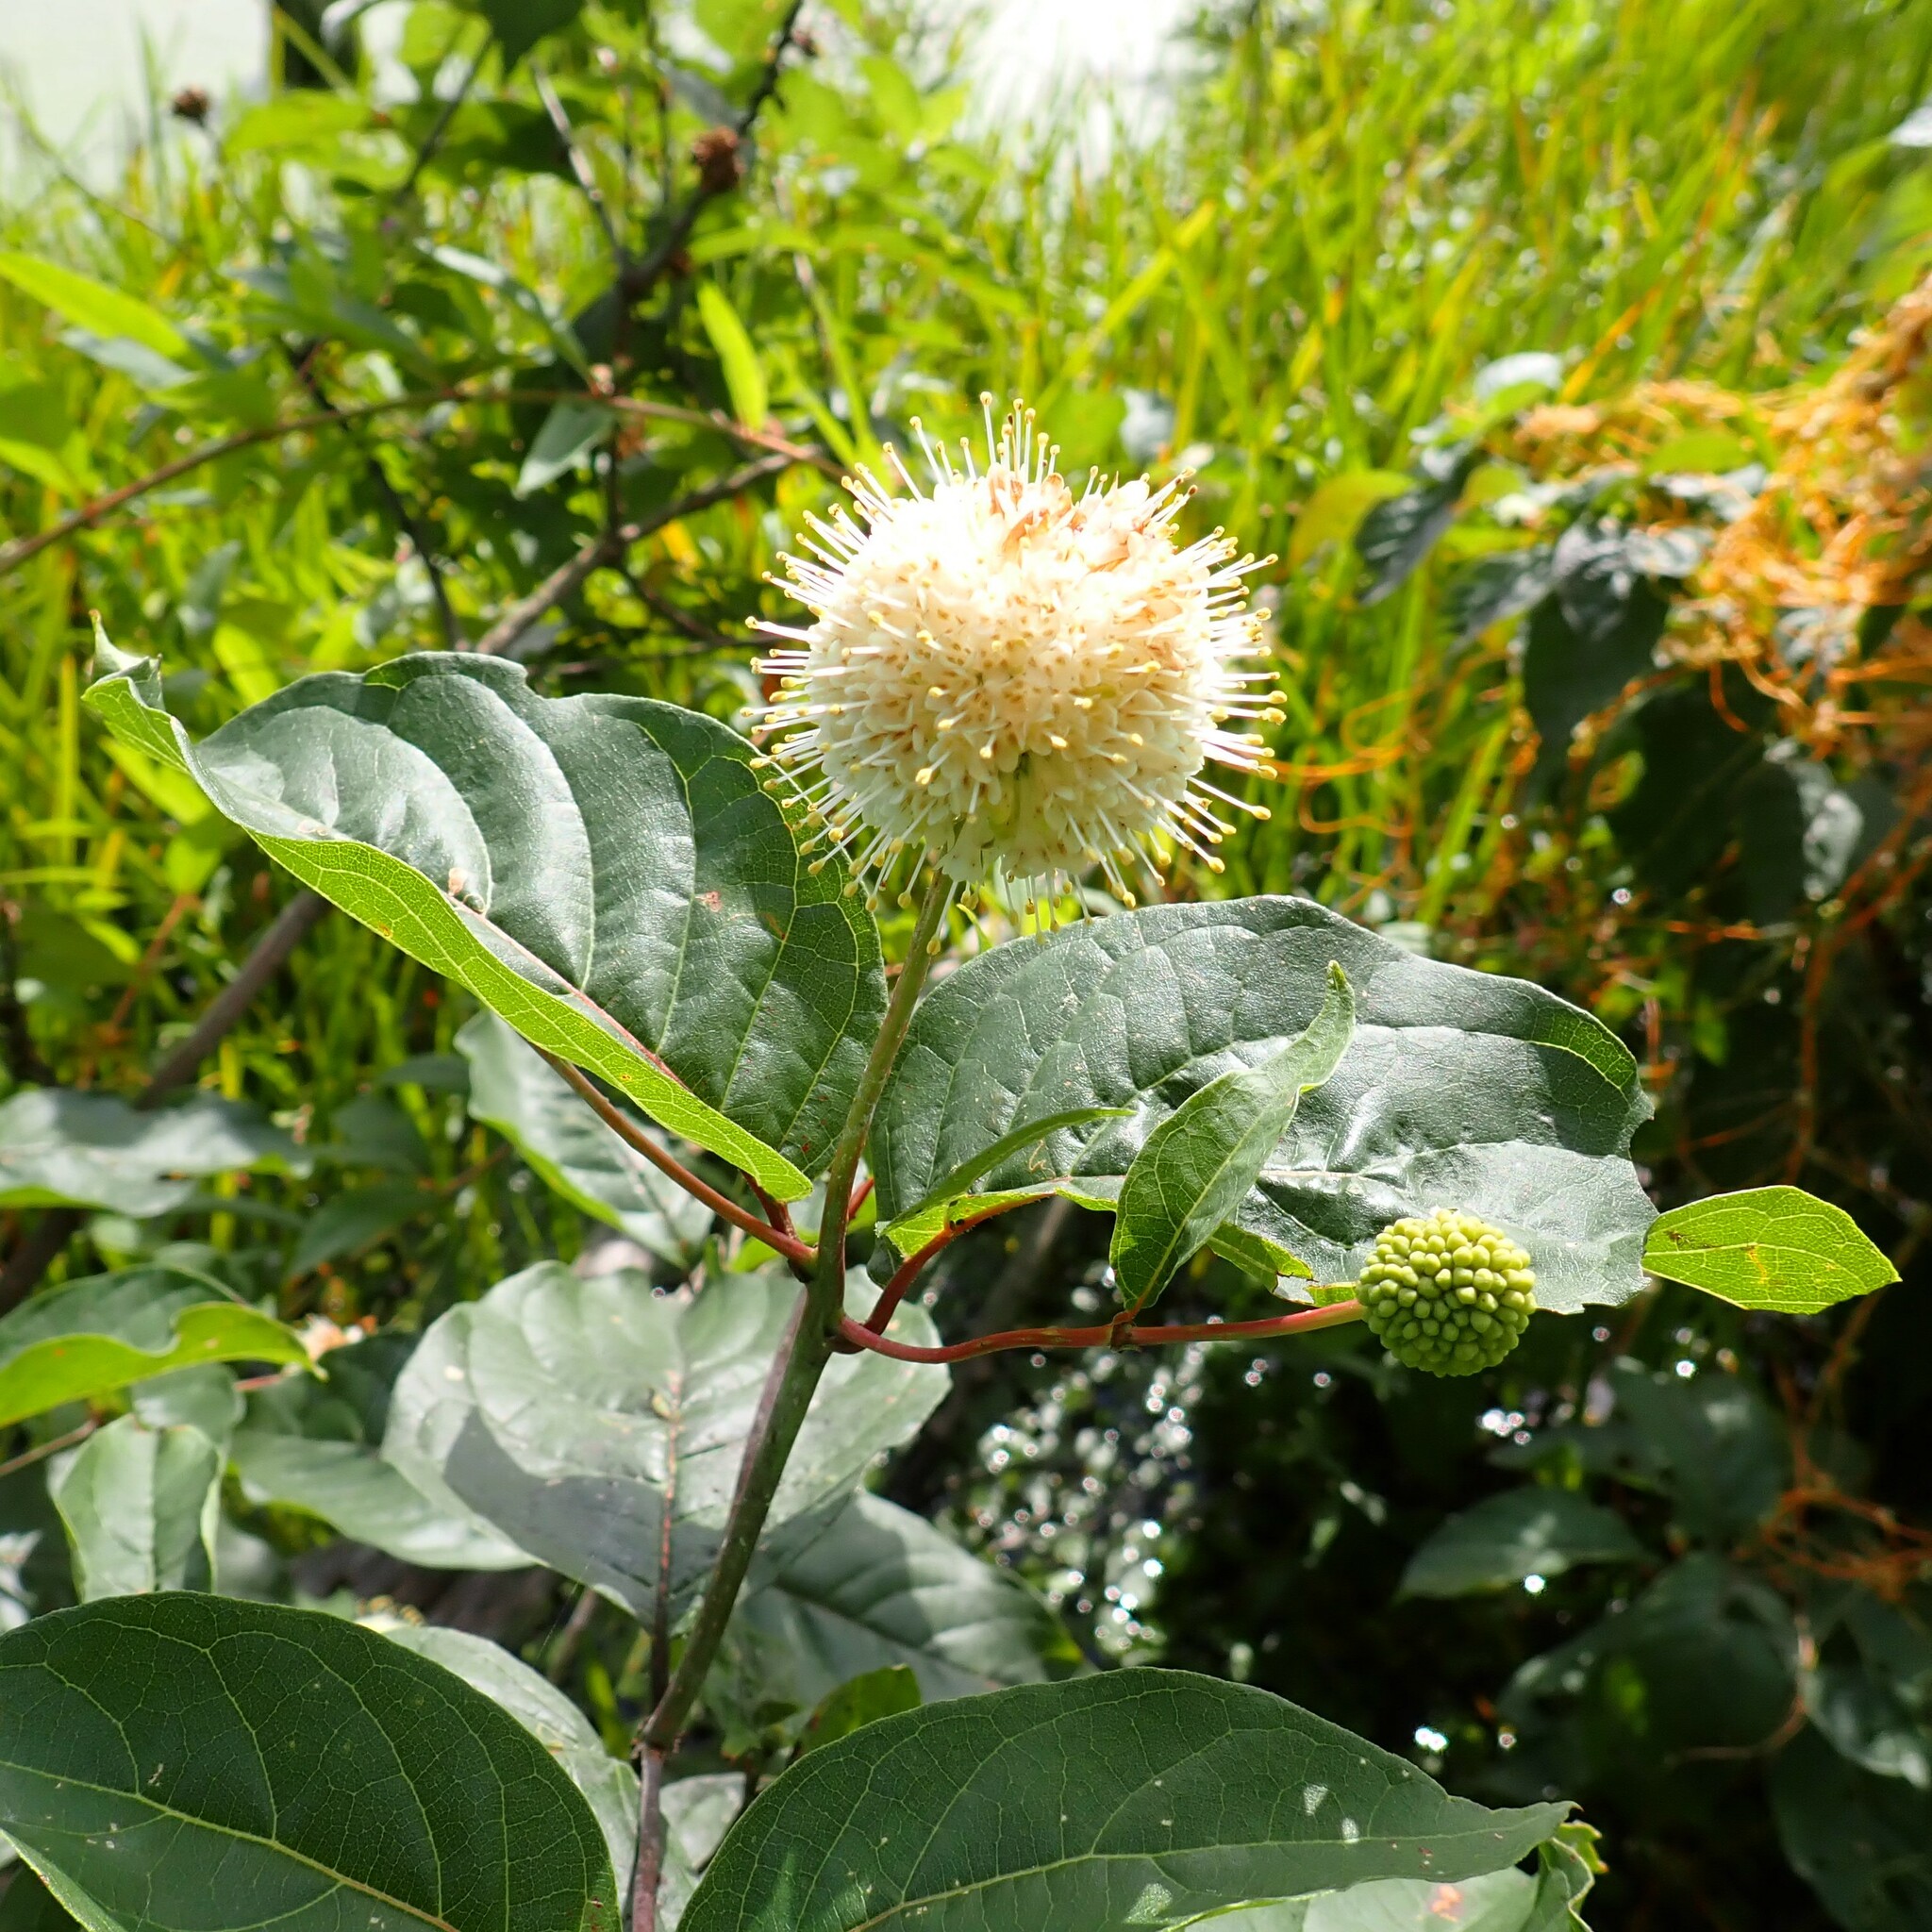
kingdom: Plantae
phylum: Tracheophyta
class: Magnoliopsida
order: Gentianales
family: Rubiaceae
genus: Cephalanthus
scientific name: Cephalanthus occidentalis
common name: Button-willow
